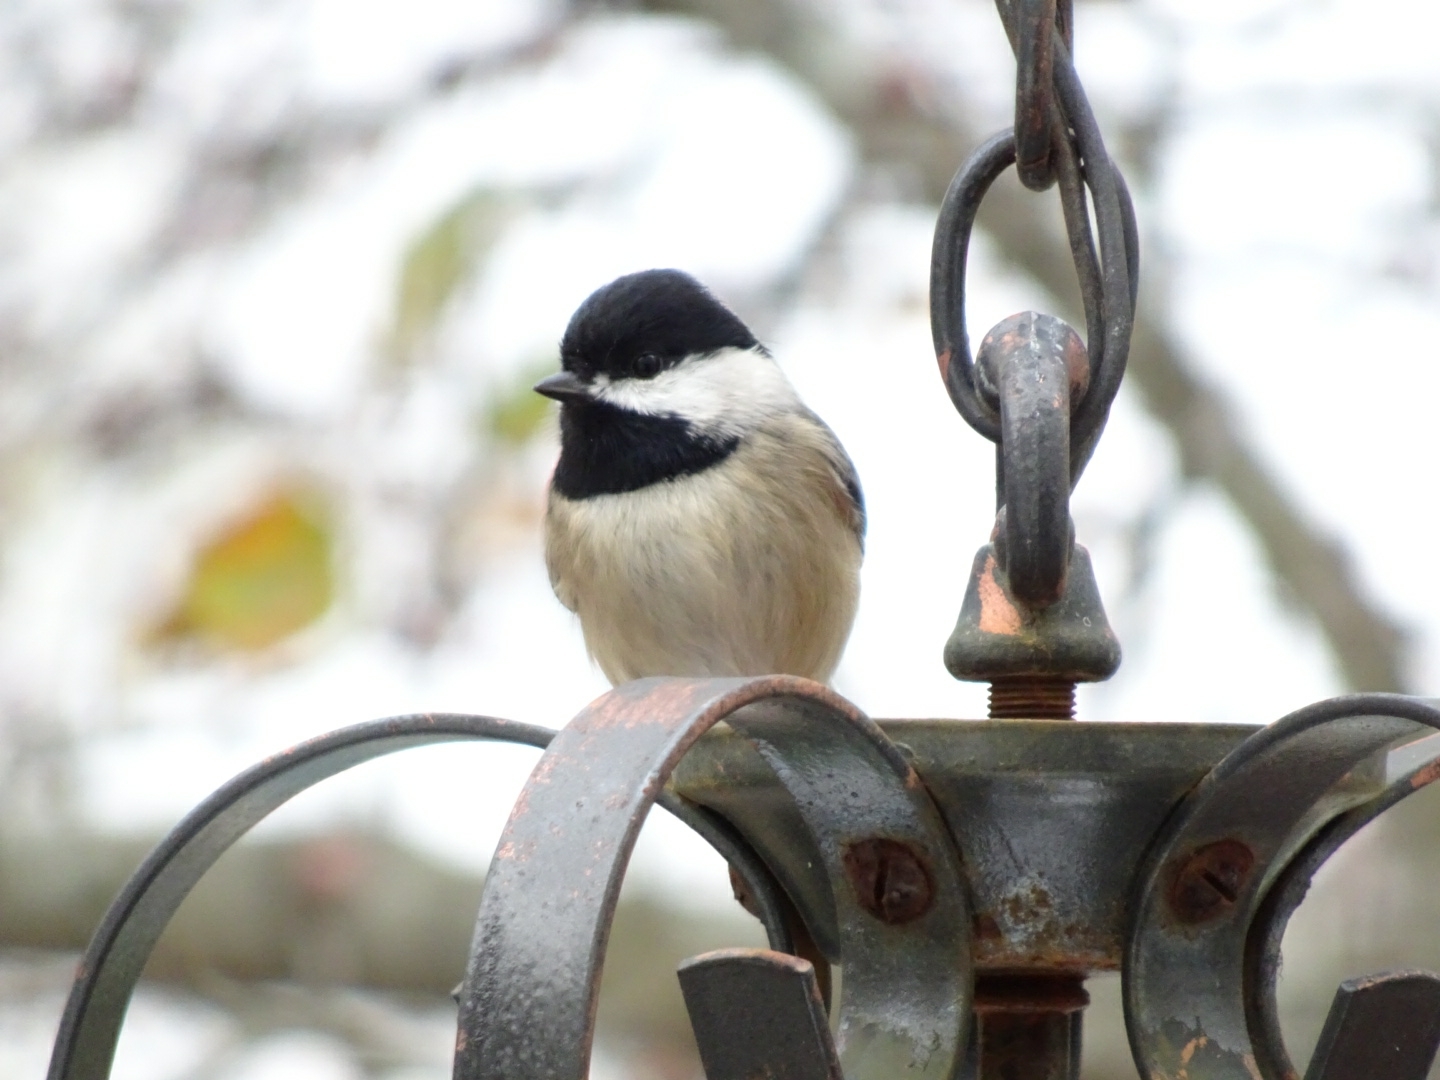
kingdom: Animalia
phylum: Chordata
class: Aves
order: Passeriformes
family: Paridae
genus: Poecile
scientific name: Poecile carolinensis
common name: Carolina chickadee
